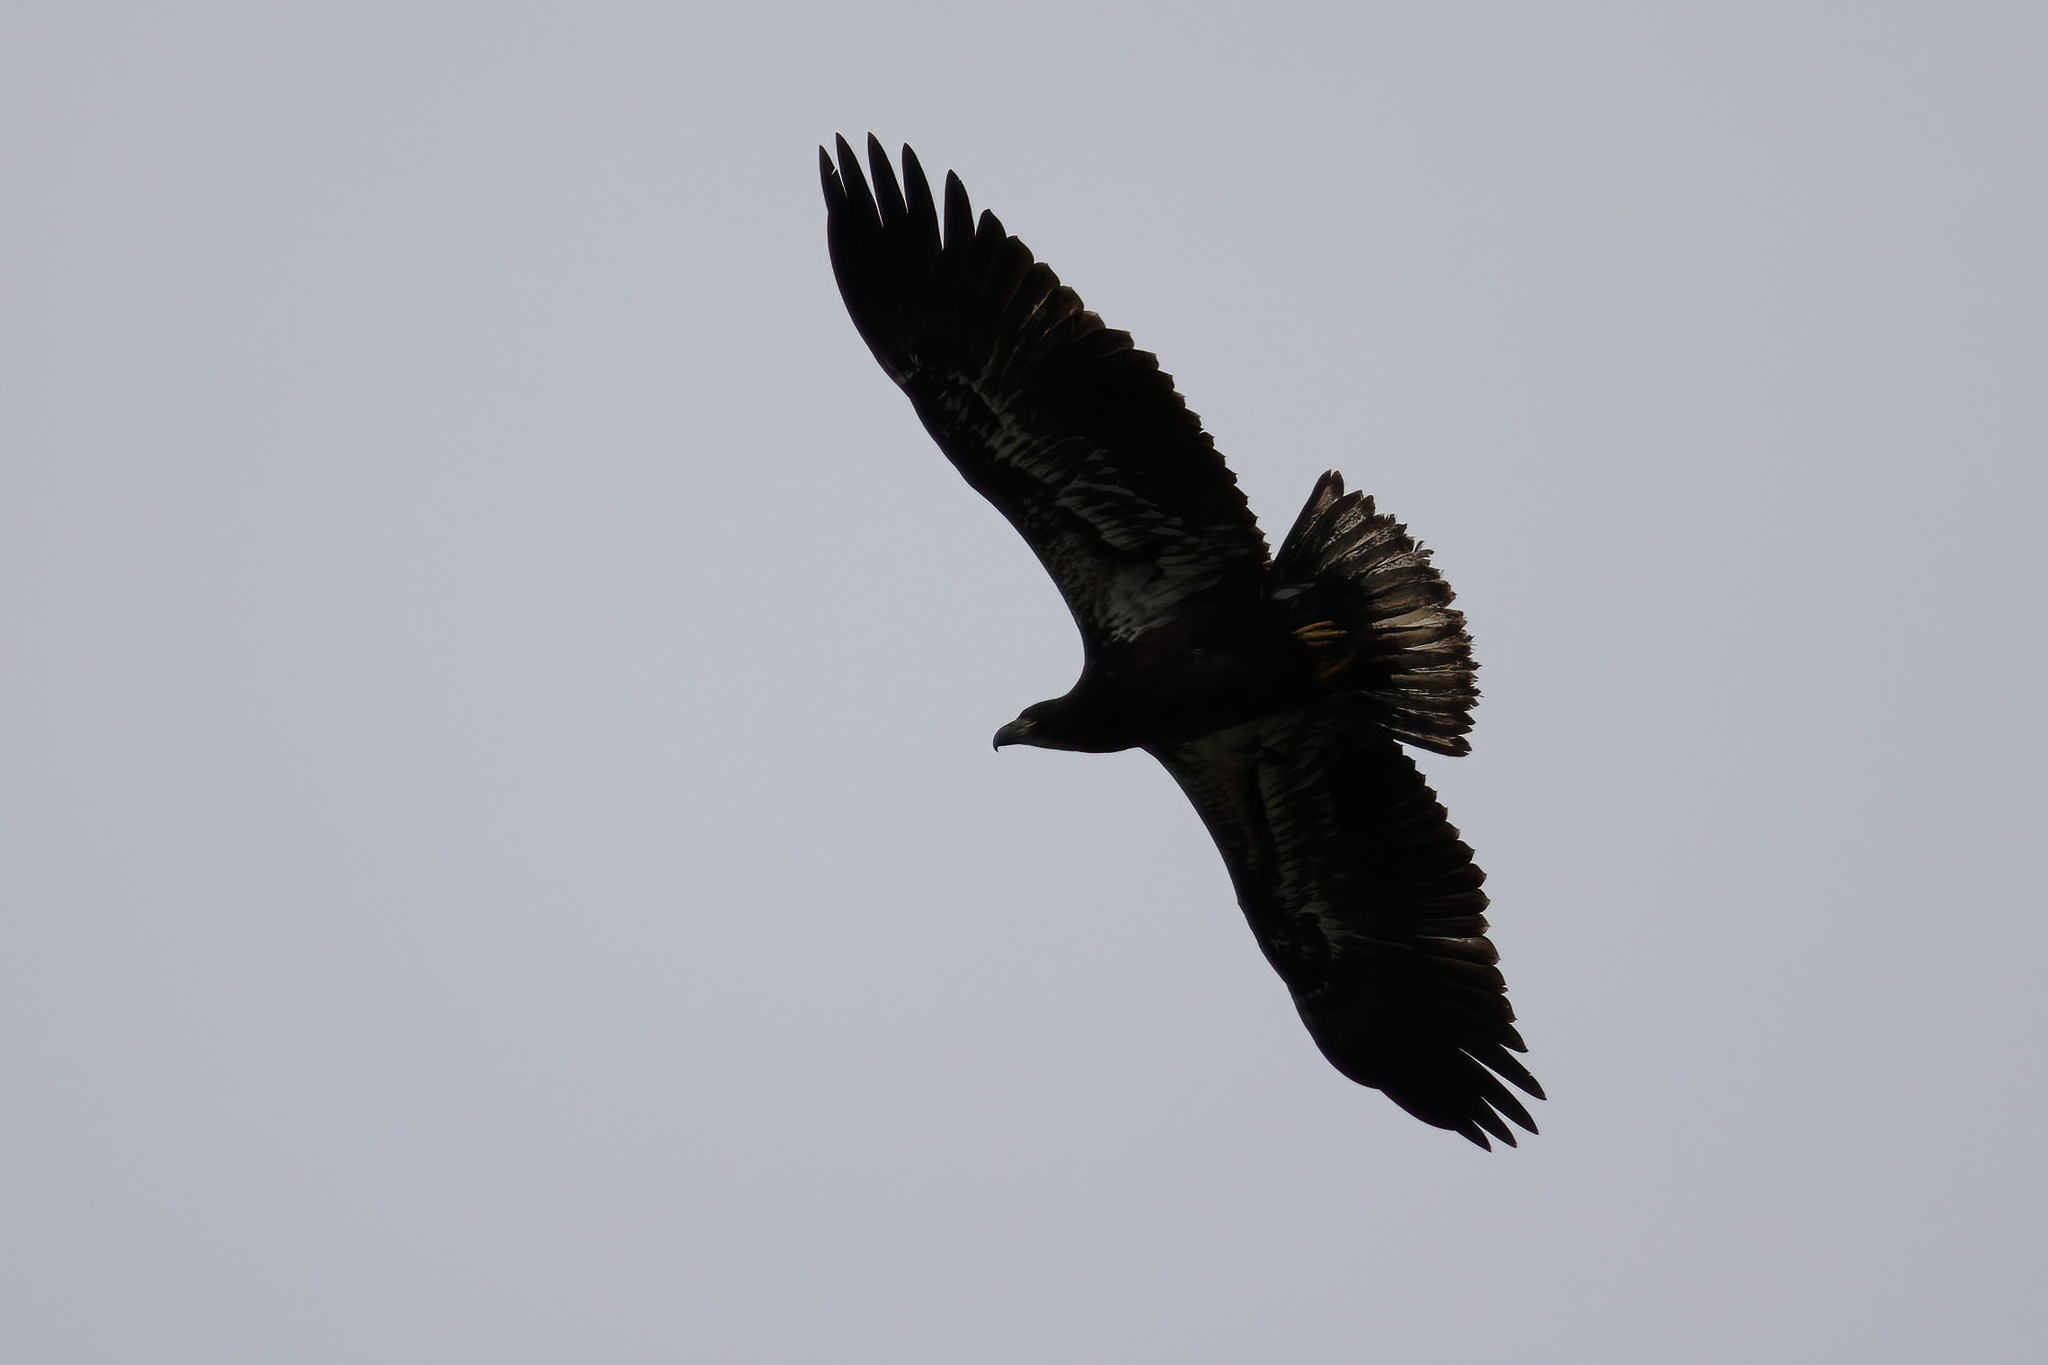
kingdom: Animalia
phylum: Chordata
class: Aves
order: Accipitriformes
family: Accipitridae
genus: Haliaeetus
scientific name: Haliaeetus leucocephalus
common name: Bald eagle
